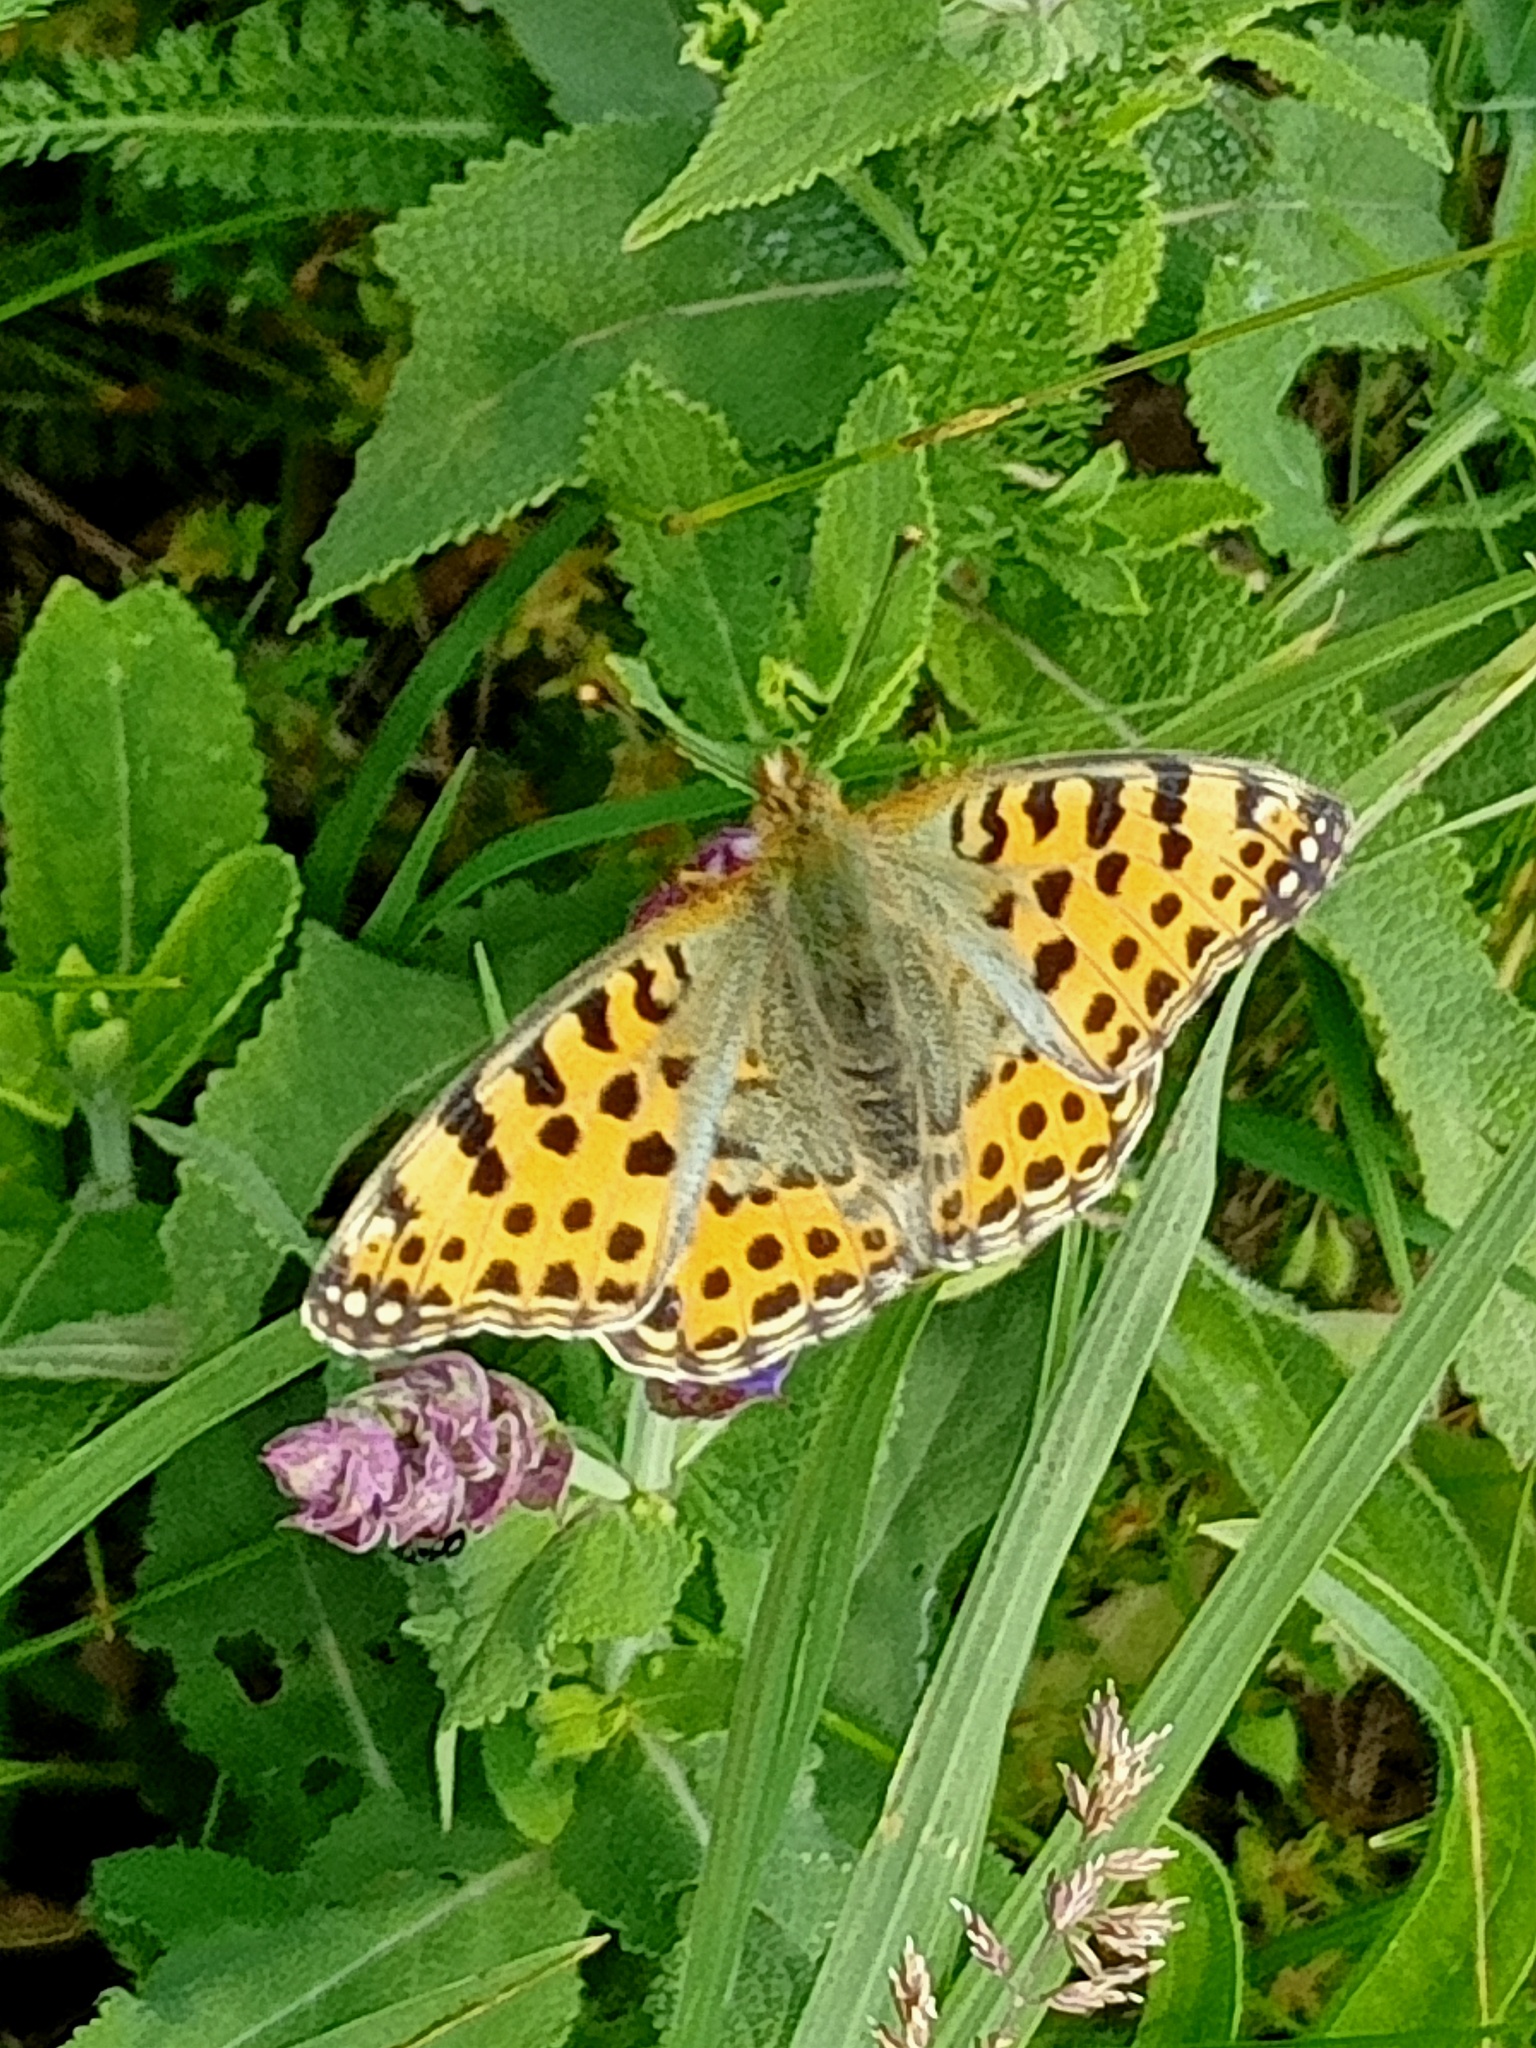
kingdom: Animalia
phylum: Arthropoda
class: Insecta
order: Lepidoptera
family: Nymphalidae
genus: Issoria
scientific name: Issoria lathonia
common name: Queen of spain fritillary
